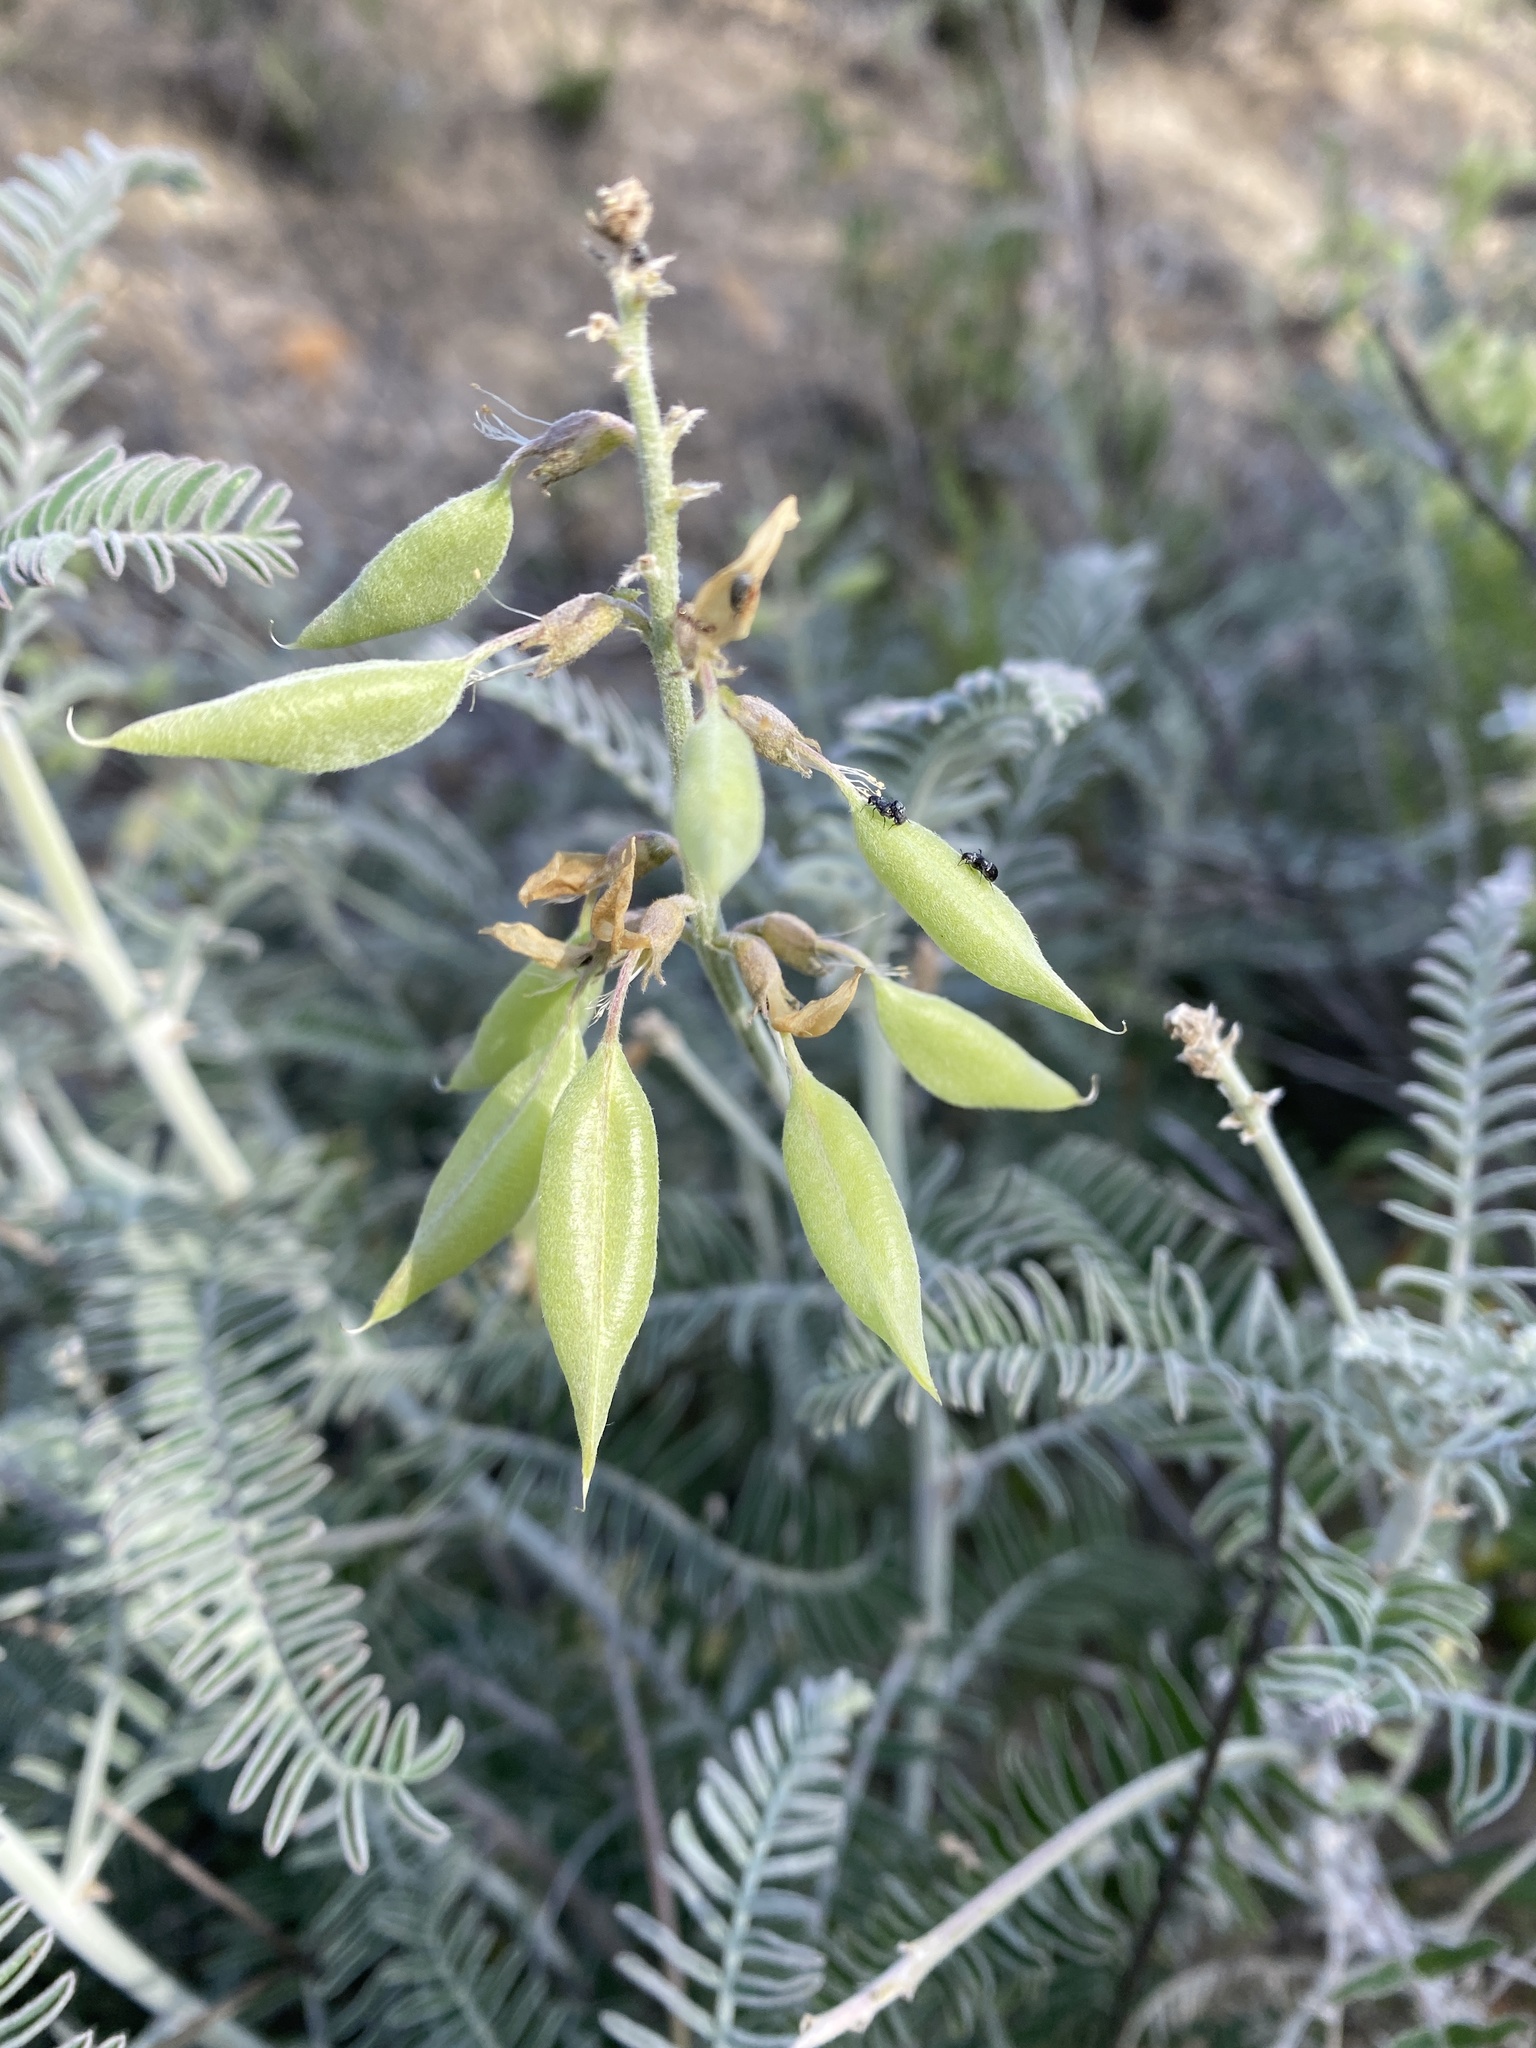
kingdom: Plantae
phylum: Tracheophyta
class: Magnoliopsida
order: Fabales
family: Fabaceae
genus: Astragalus
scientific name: Astragalus trichopodus
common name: Santa barbara milk-vetch
